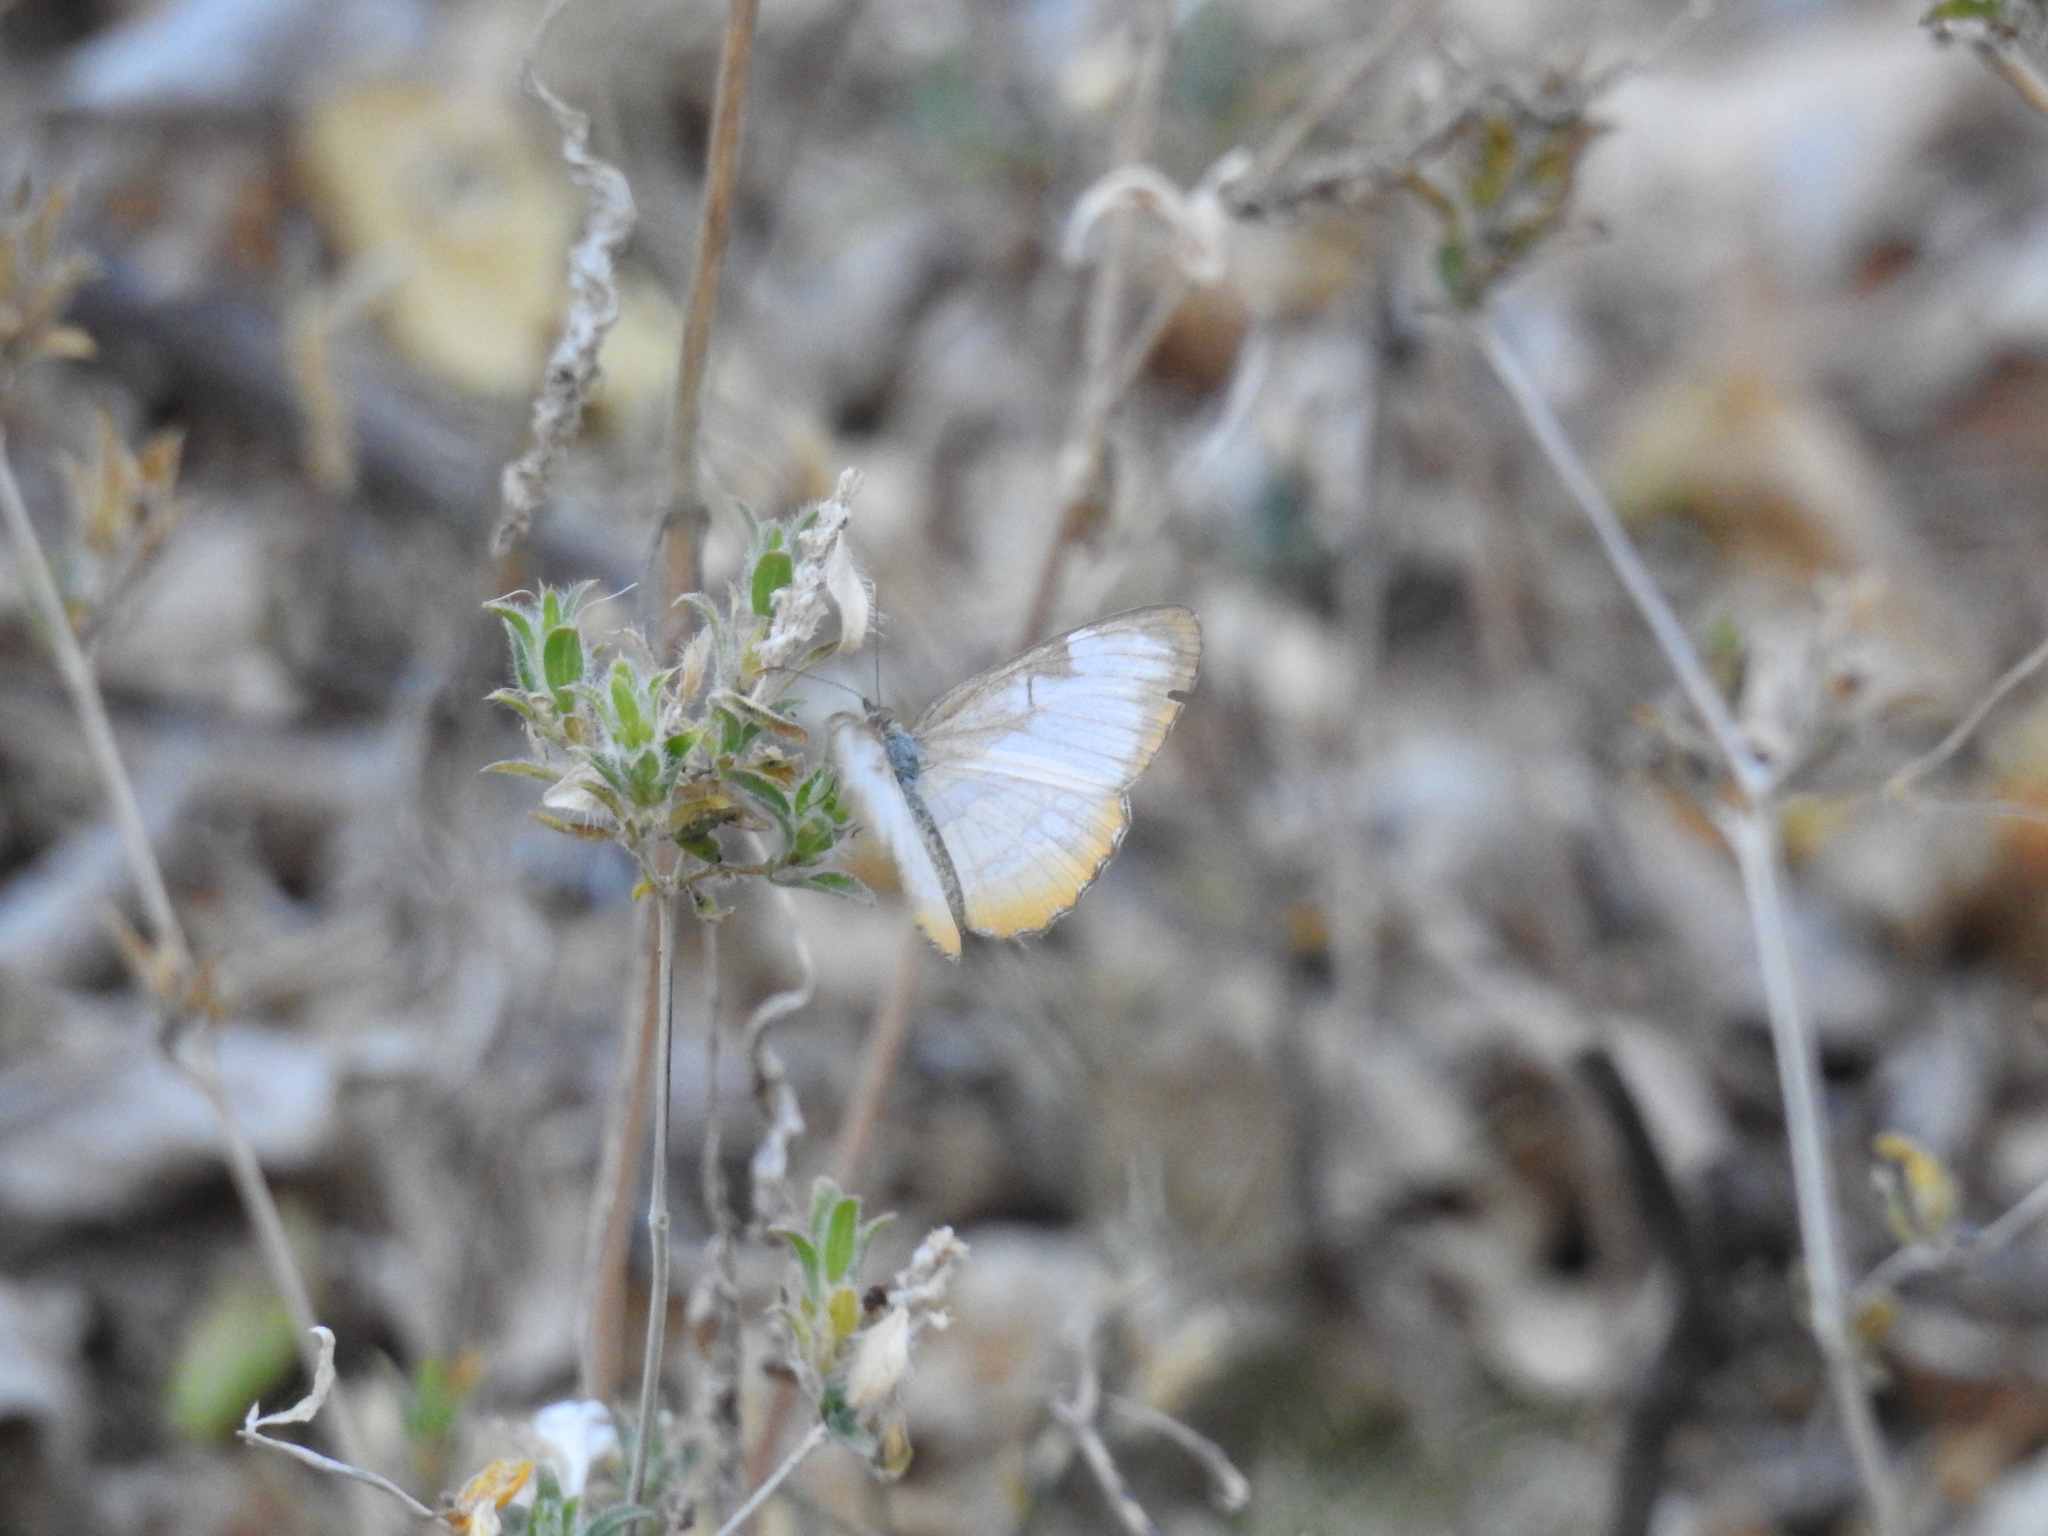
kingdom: Animalia
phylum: Arthropoda
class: Insecta
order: Lepidoptera
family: Nymphalidae
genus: Mestra
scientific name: Mestra amymone
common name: Common mestra
